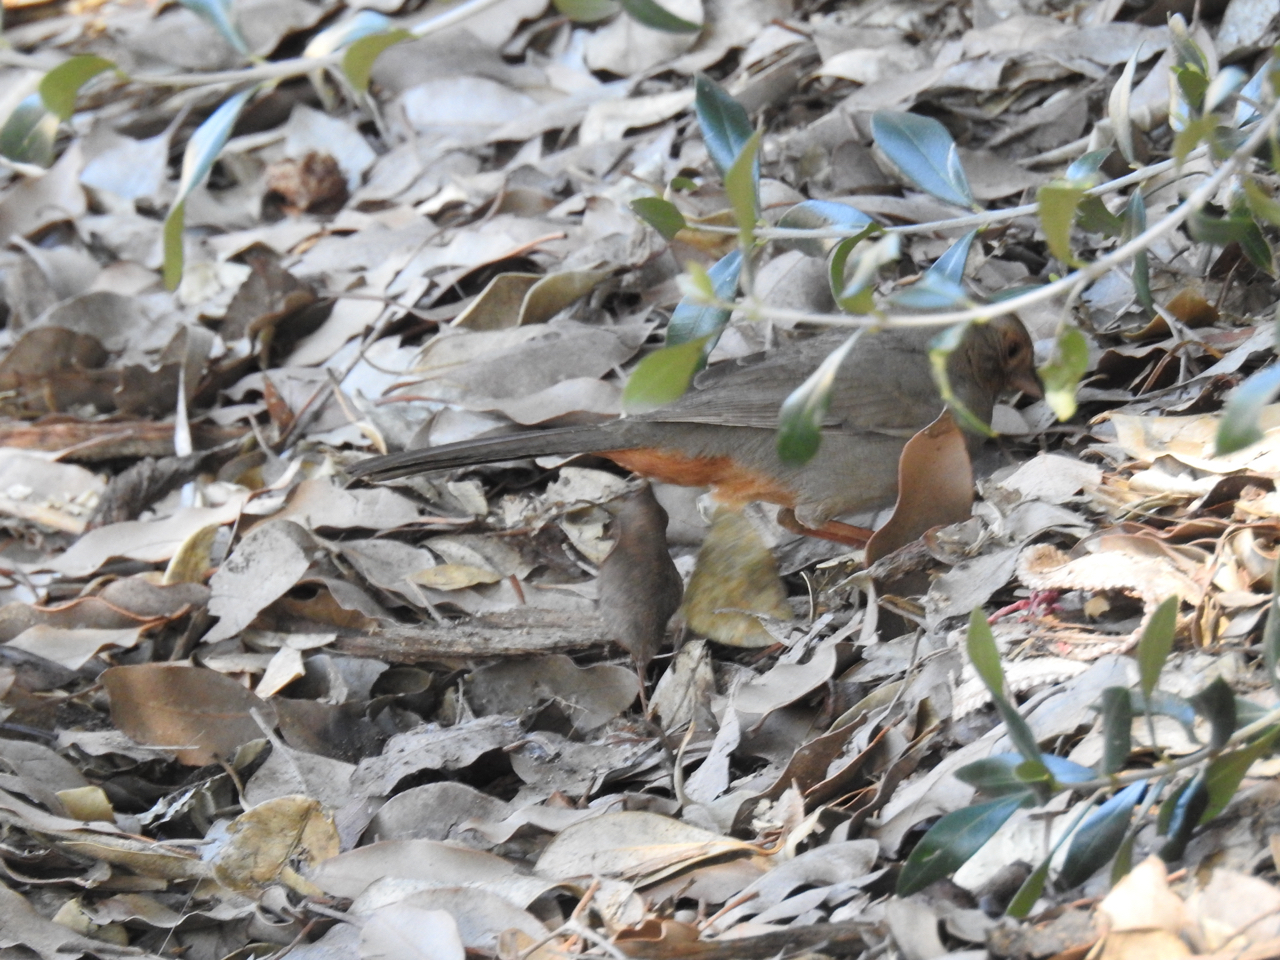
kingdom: Animalia
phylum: Chordata
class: Aves
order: Passeriformes
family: Passerellidae
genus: Melozone
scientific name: Melozone crissalis
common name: California towhee
